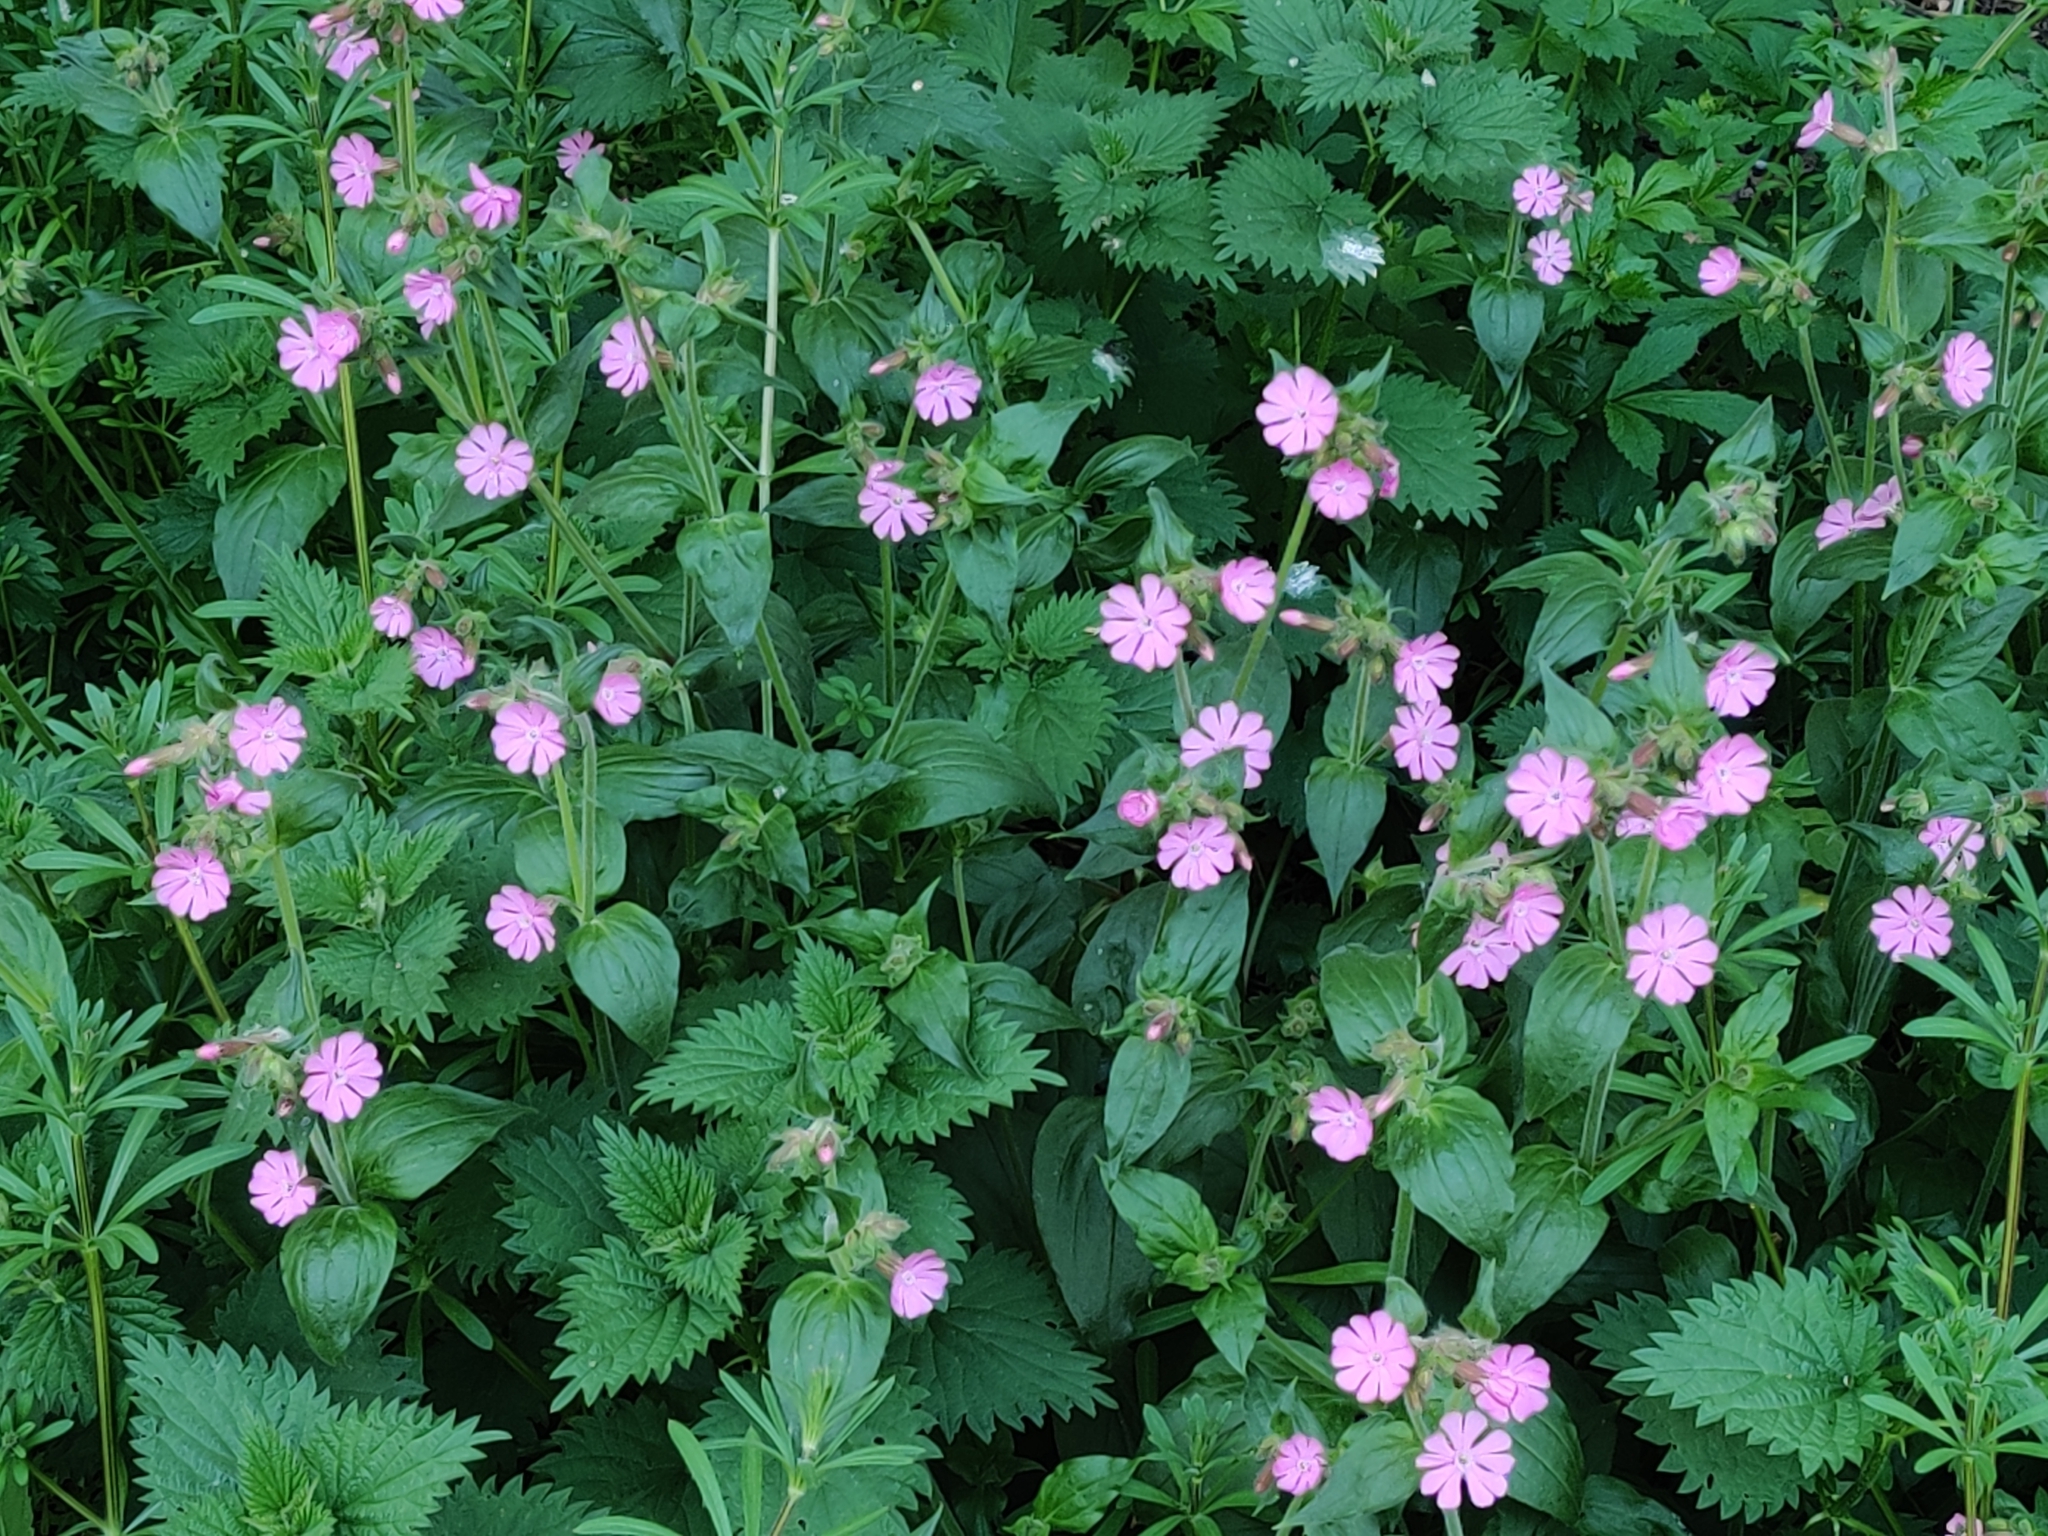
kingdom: Plantae
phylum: Tracheophyta
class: Magnoliopsida
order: Caryophyllales
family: Caryophyllaceae
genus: Silene
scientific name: Silene dioica
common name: Red campion
